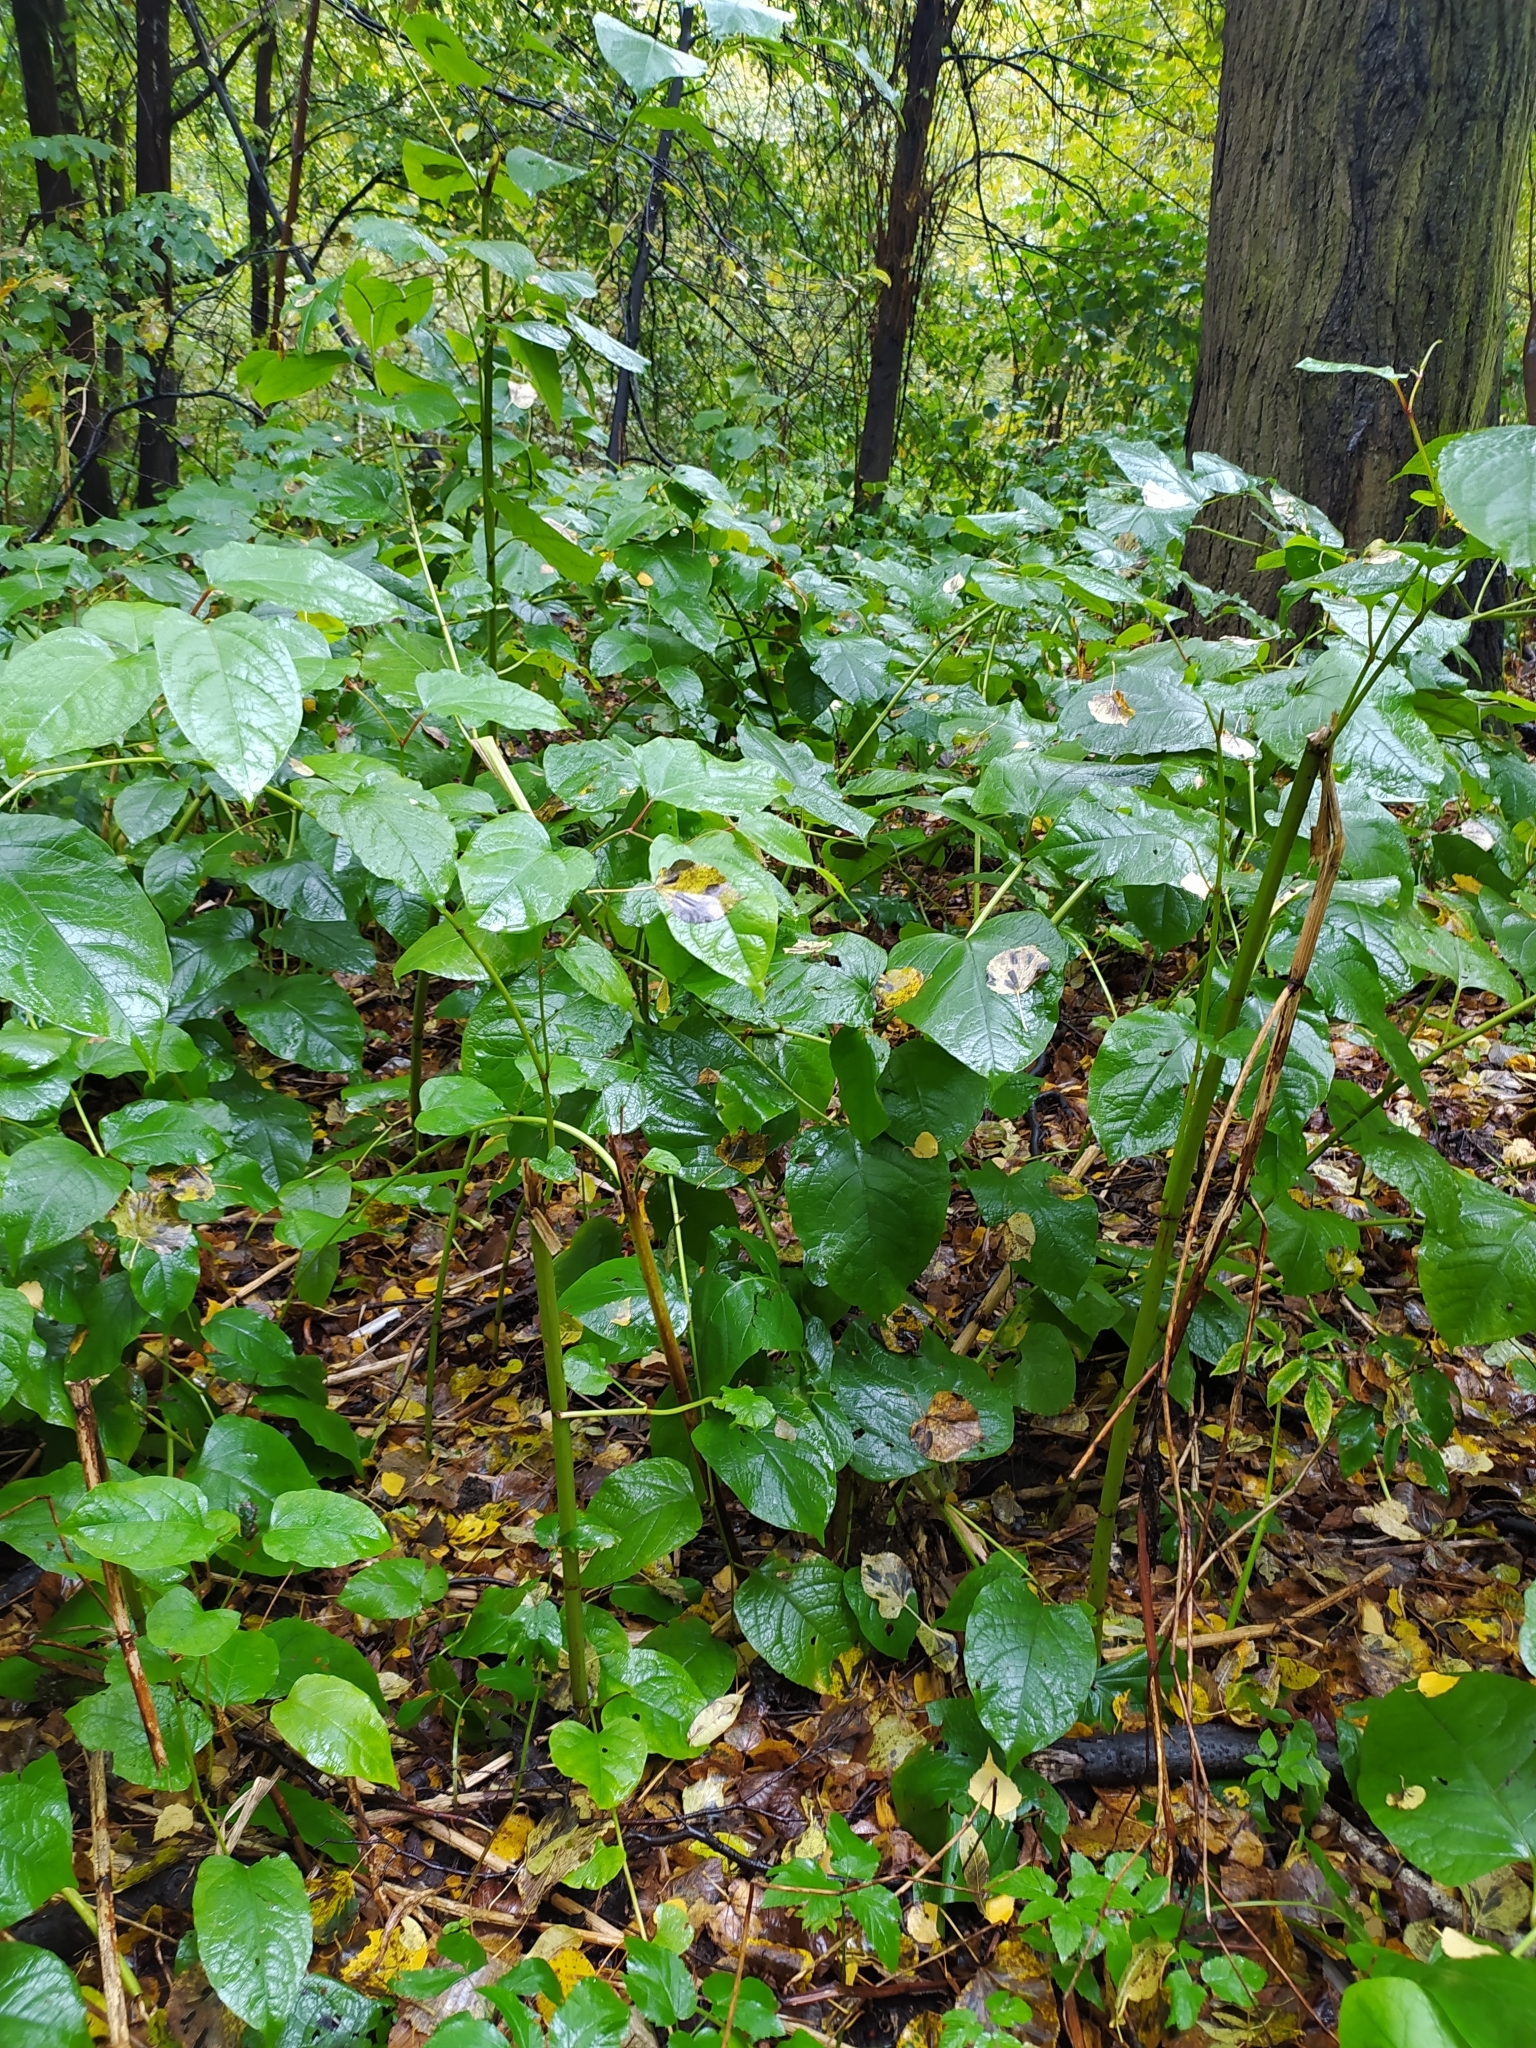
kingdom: Plantae
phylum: Tracheophyta
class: Magnoliopsida
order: Caryophyllales
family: Polygonaceae
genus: Reynoutria
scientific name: Reynoutria bohemica
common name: Bohemian knotweed
